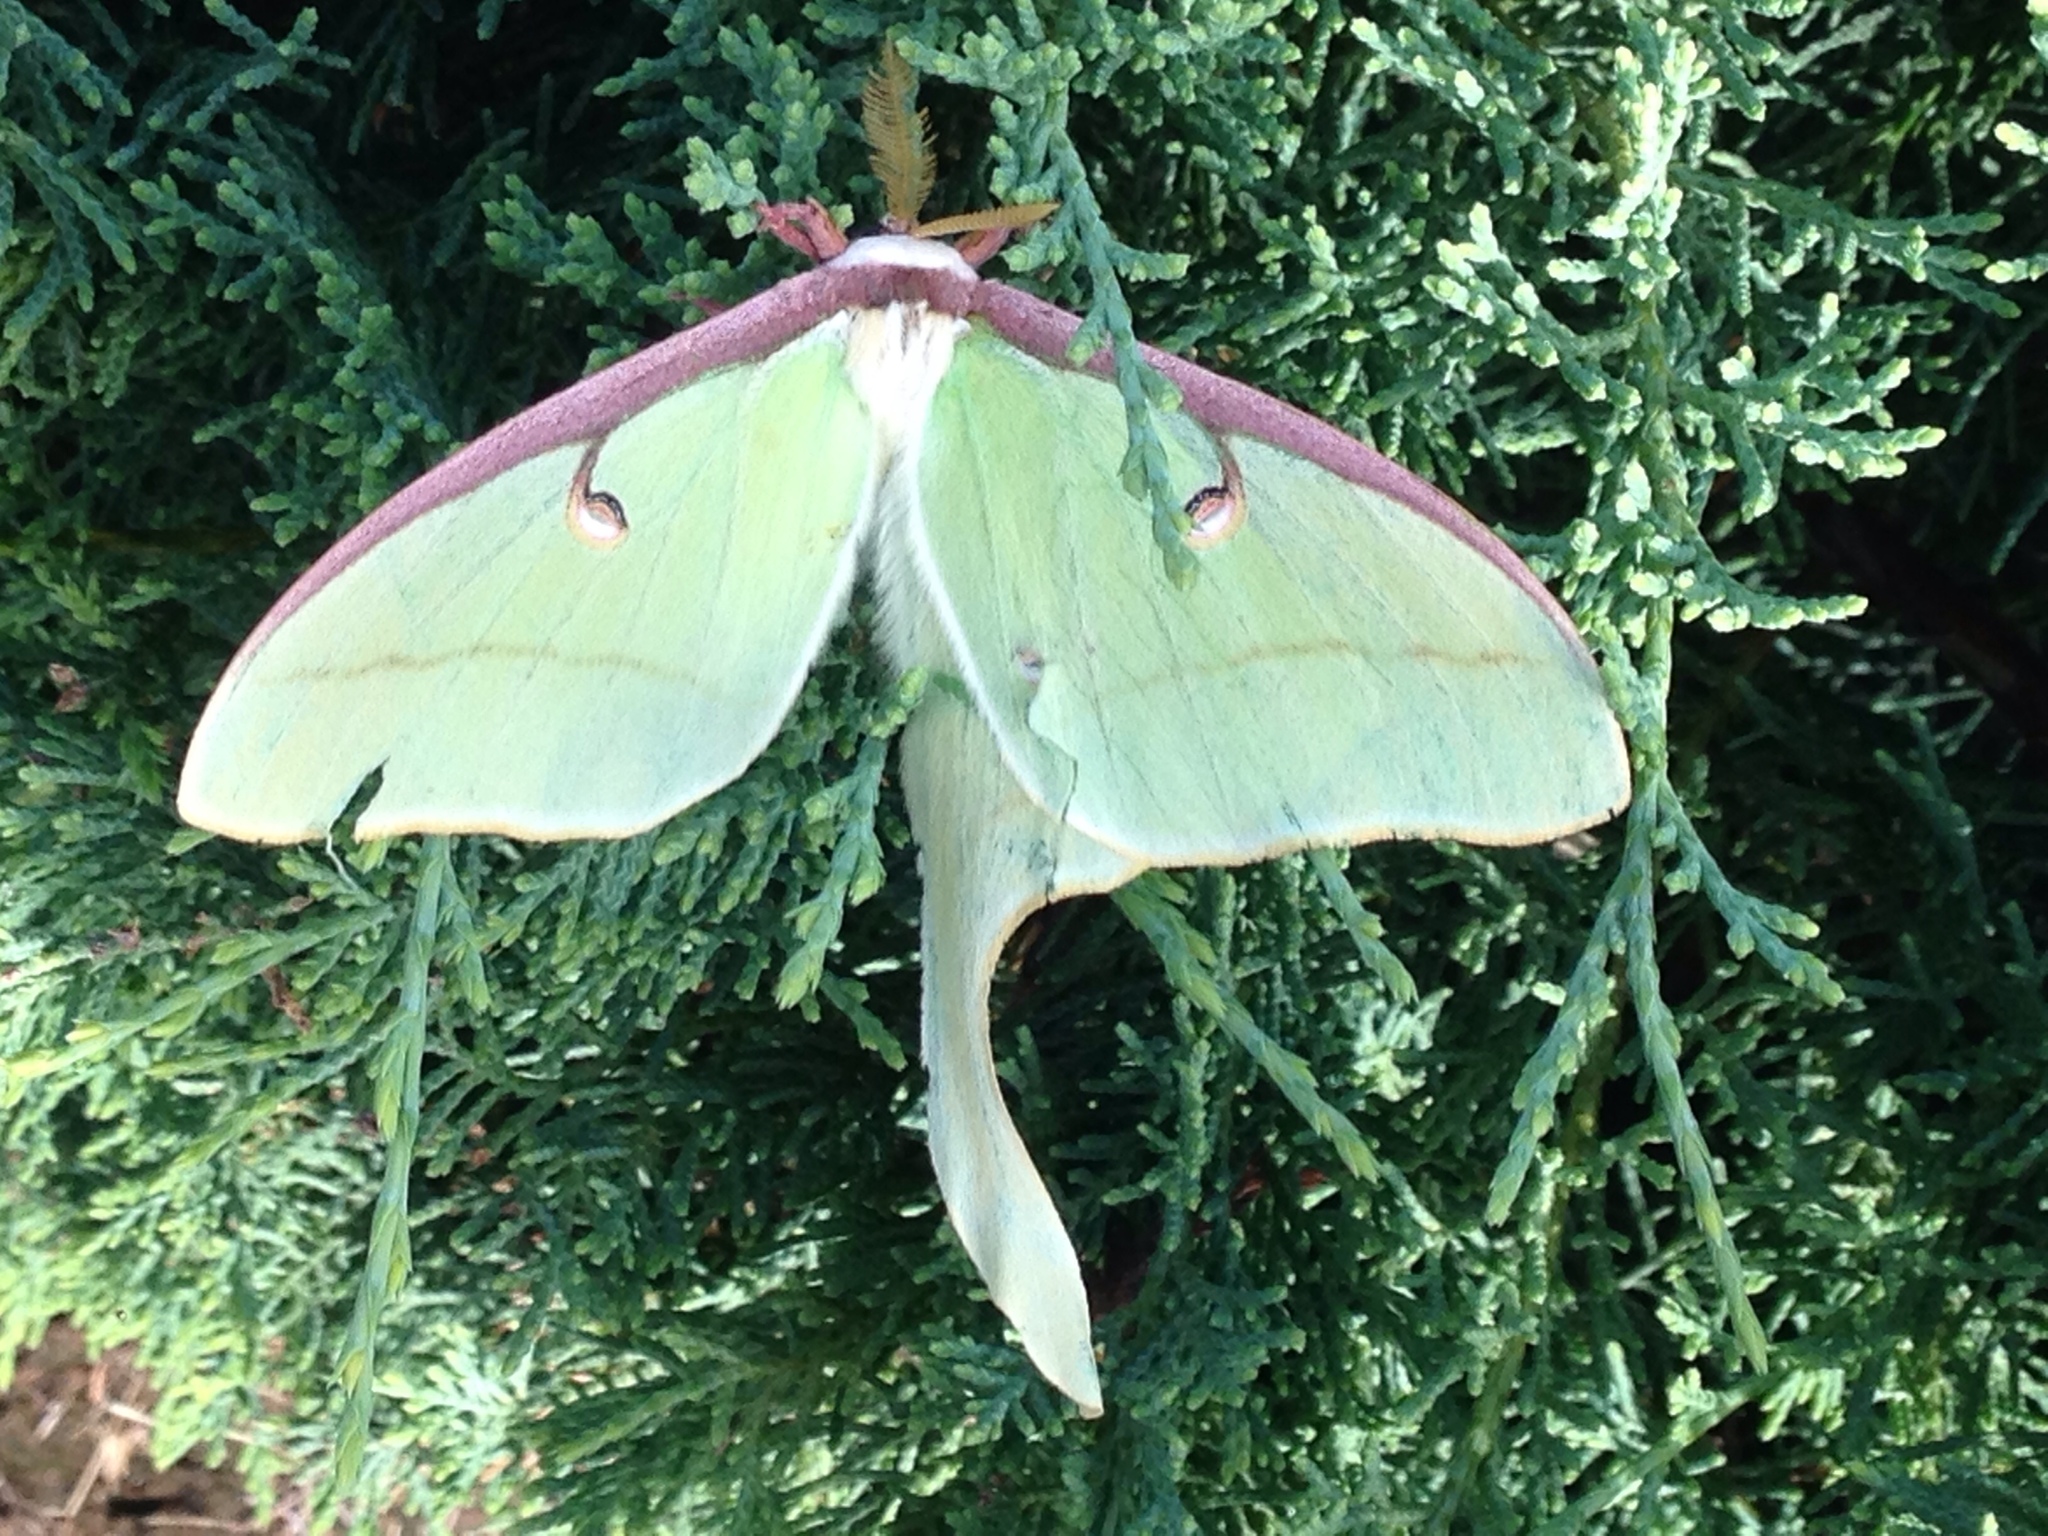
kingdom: Animalia
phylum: Arthropoda
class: Insecta
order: Lepidoptera
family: Saturniidae
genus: Actias
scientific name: Actias luna
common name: Luna moth
